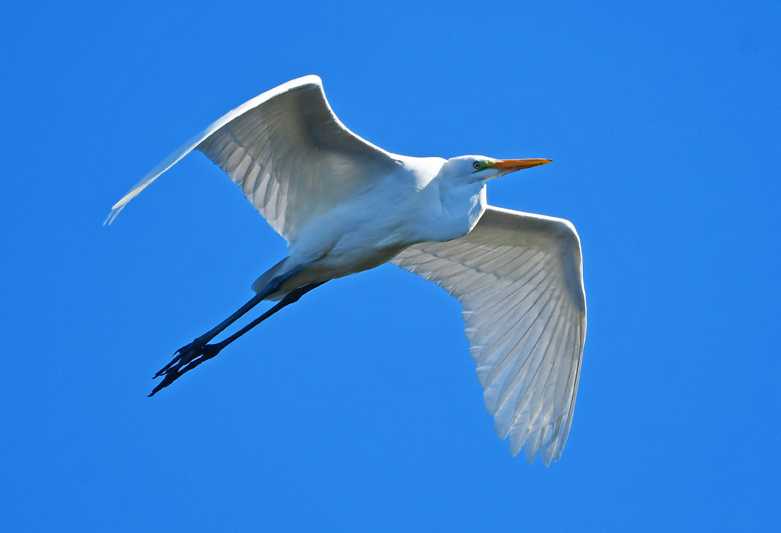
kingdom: Animalia
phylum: Chordata
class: Aves
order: Pelecaniformes
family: Ardeidae
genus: Ardea
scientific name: Ardea alba
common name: Great egret
